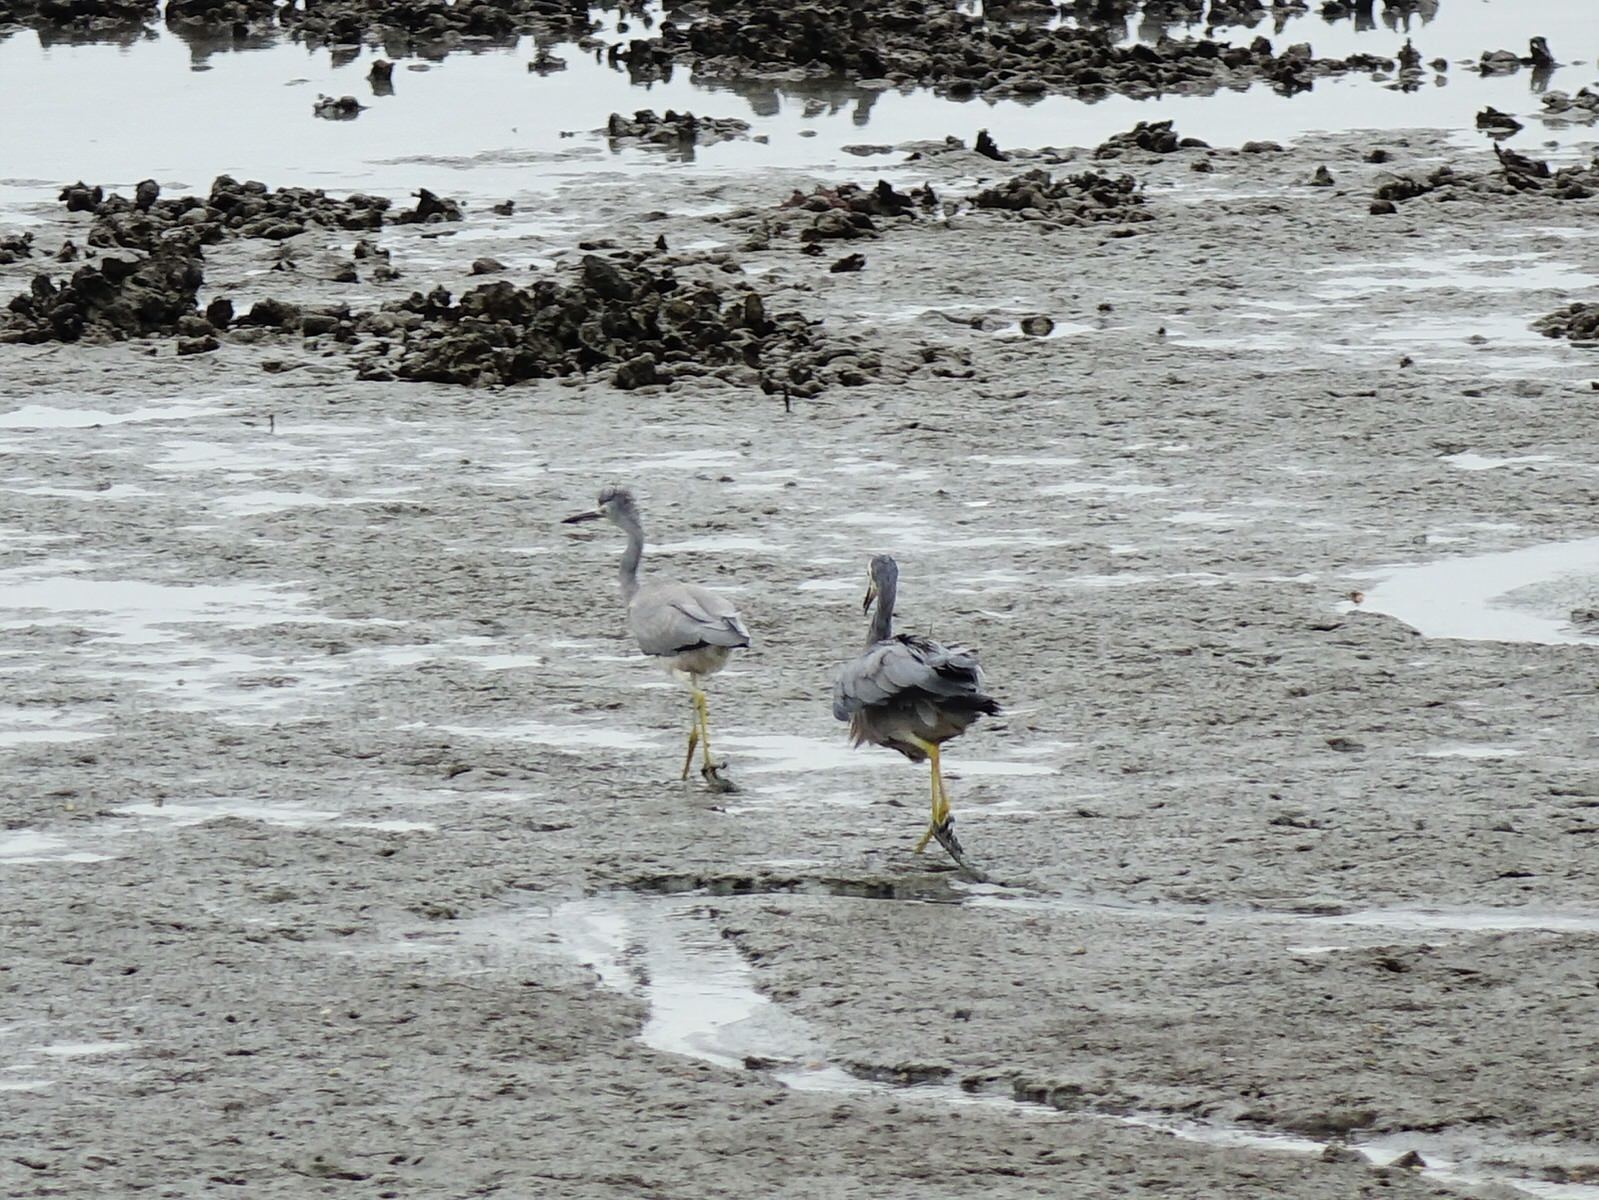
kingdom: Animalia
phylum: Chordata
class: Aves
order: Pelecaniformes
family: Ardeidae
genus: Egretta
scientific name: Egretta novaehollandiae
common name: White-faced heron
